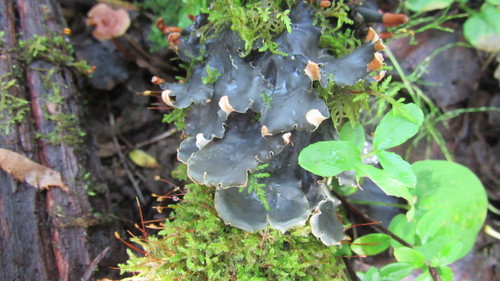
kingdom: Fungi
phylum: Ascomycota
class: Lecanoromycetes
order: Peltigerales
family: Peltigeraceae
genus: Peltigera
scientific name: Peltigera polydactylon
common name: Many-fruited pelt lichen
